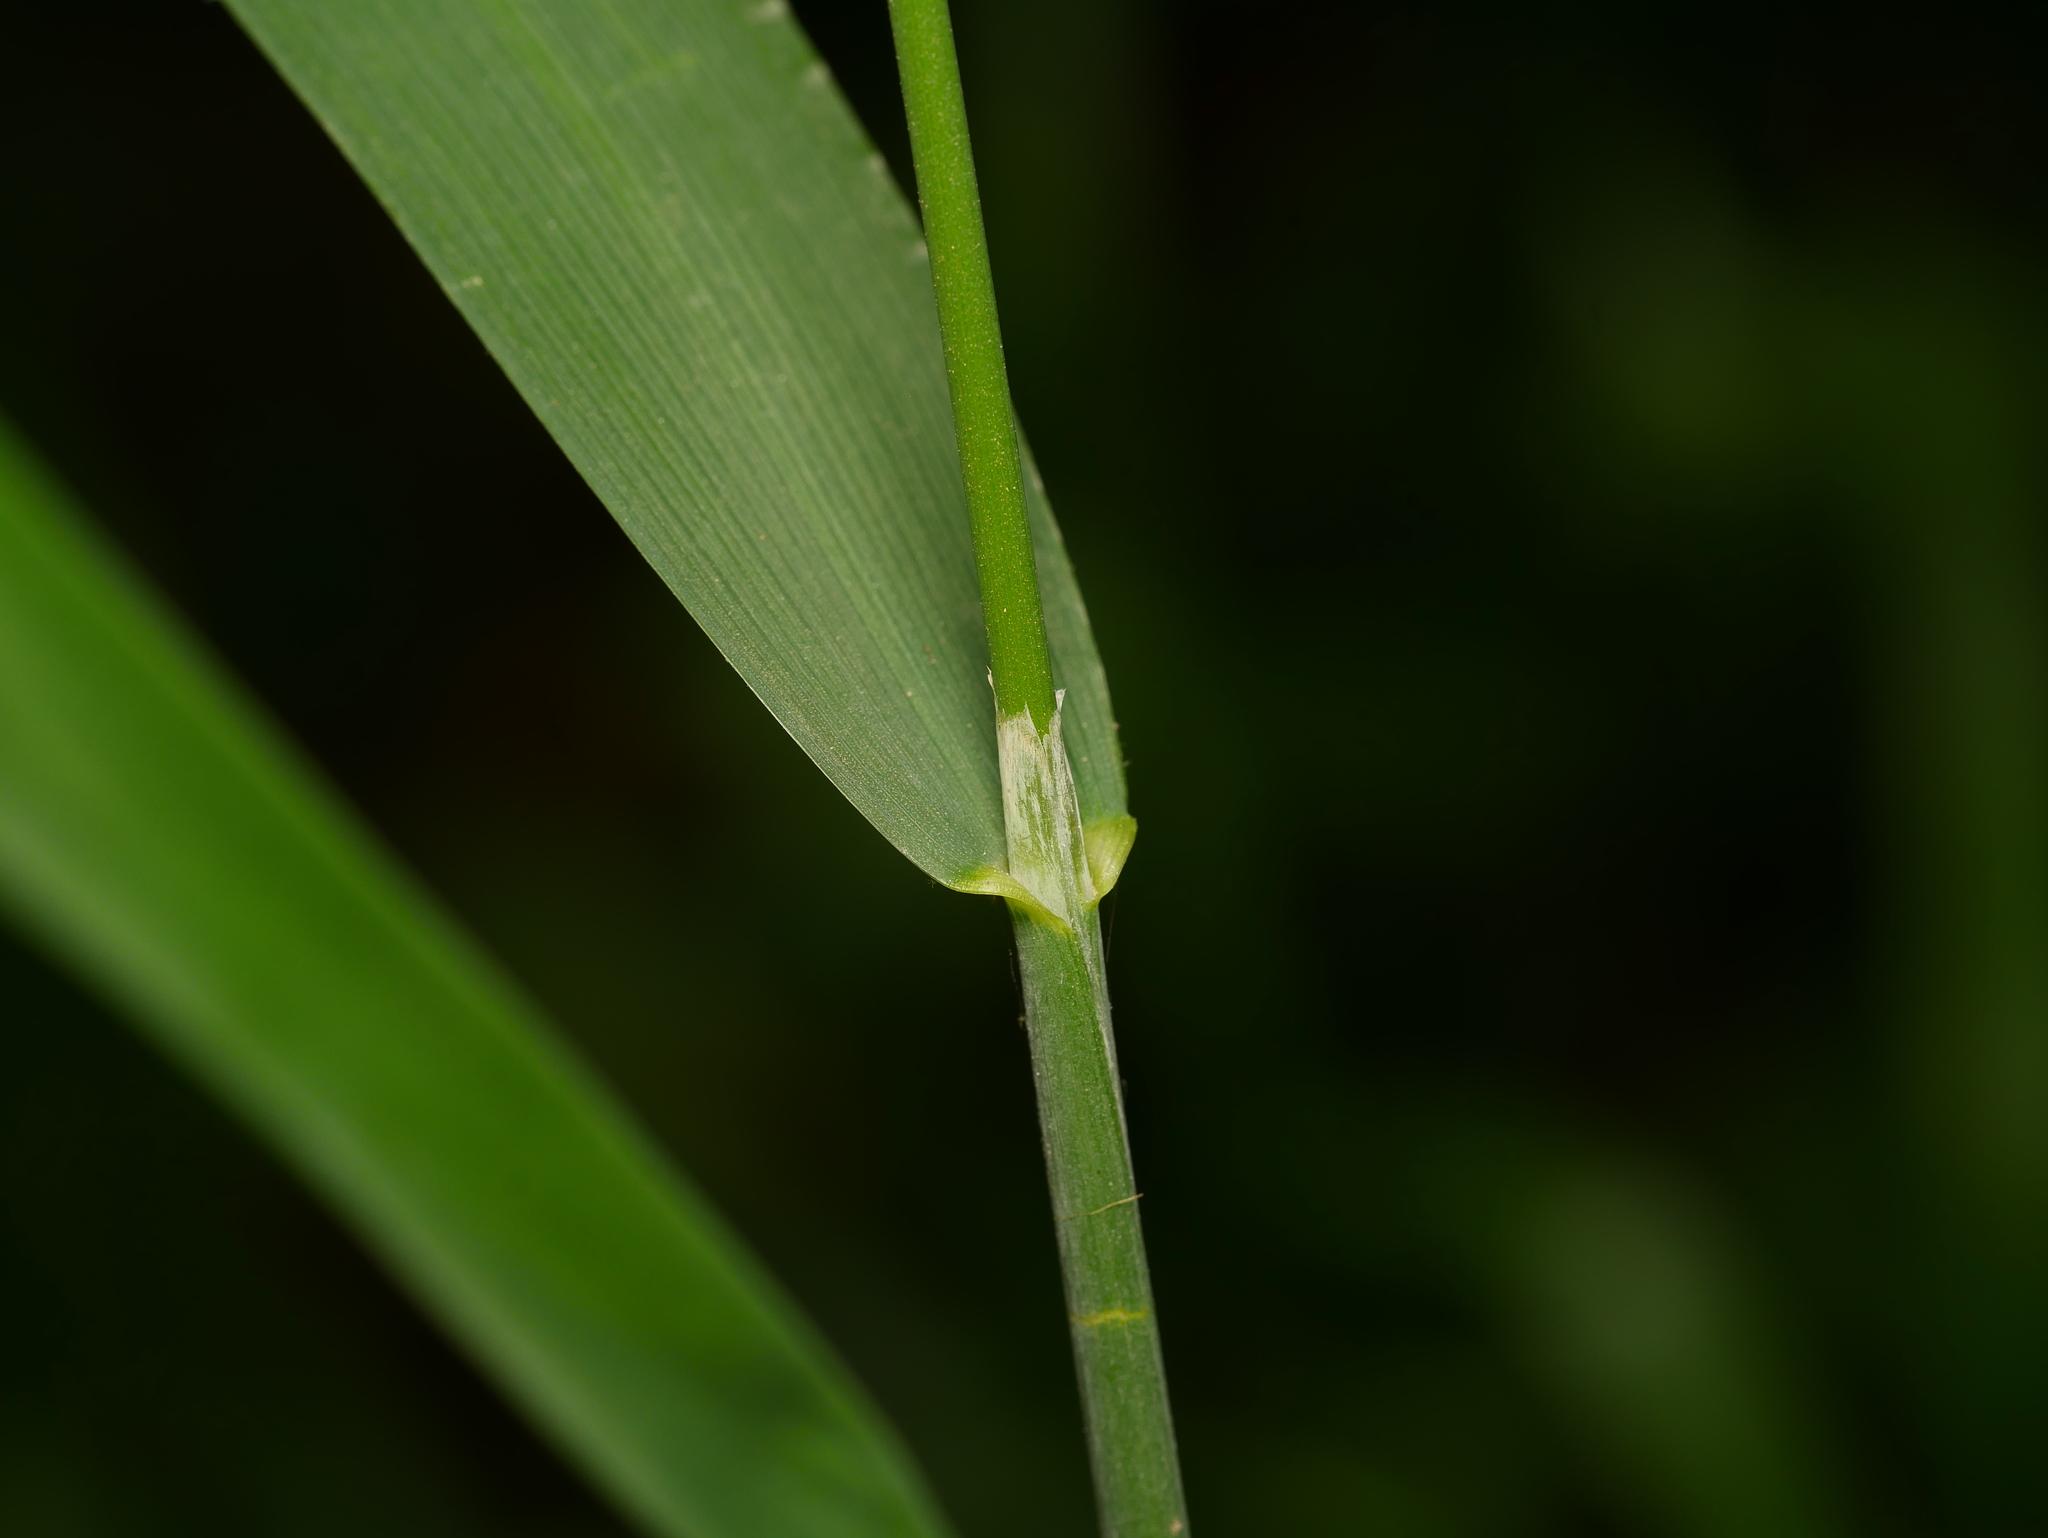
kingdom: Plantae
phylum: Tracheophyta
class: Liliopsida
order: Poales
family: Poaceae
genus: Milium
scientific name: Milium effusum
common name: Wood millet
